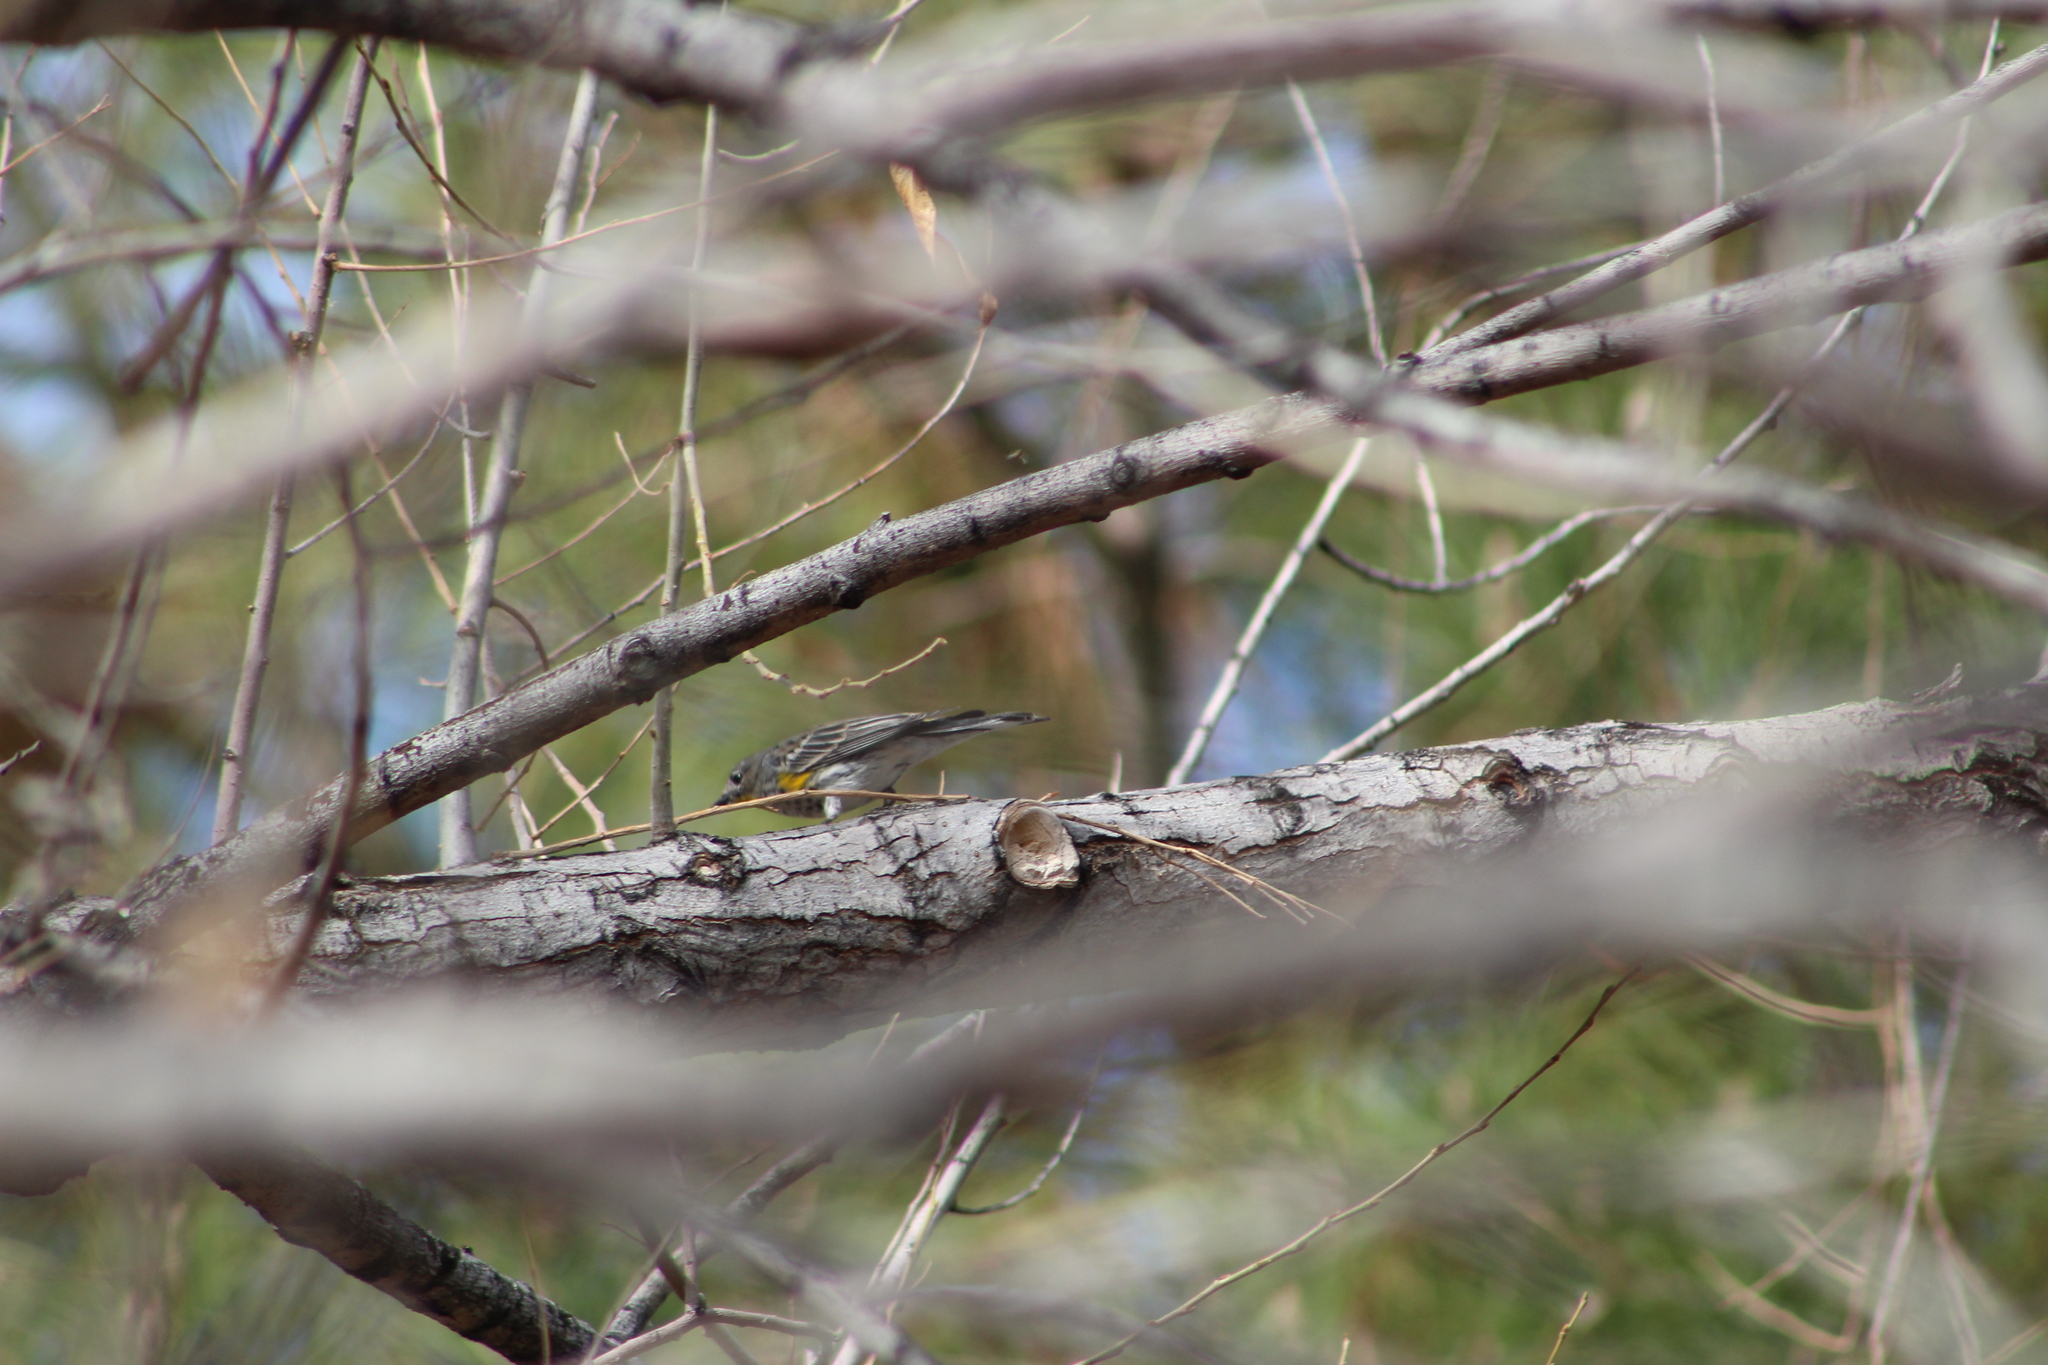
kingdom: Animalia
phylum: Chordata
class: Aves
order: Passeriformes
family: Parulidae
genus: Setophaga
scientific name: Setophaga coronata
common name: Myrtle warbler
